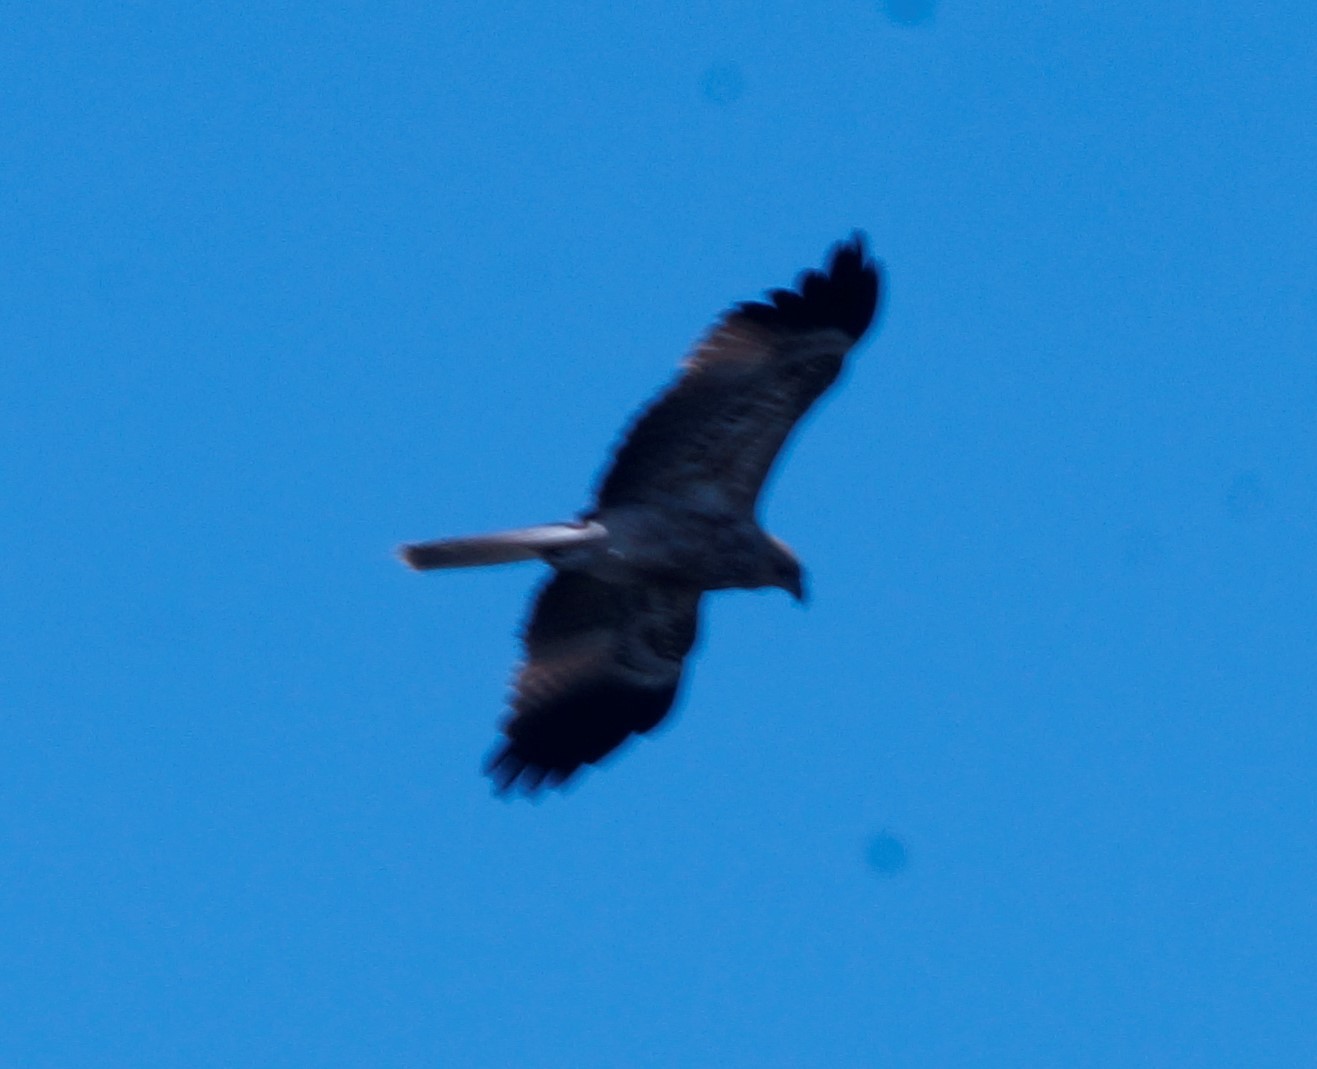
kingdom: Animalia
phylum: Chordata
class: Aves
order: Accipitriformes
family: Accipitridae
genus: Haliastur
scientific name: Haliastur sphenurus
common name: Whistling kite
